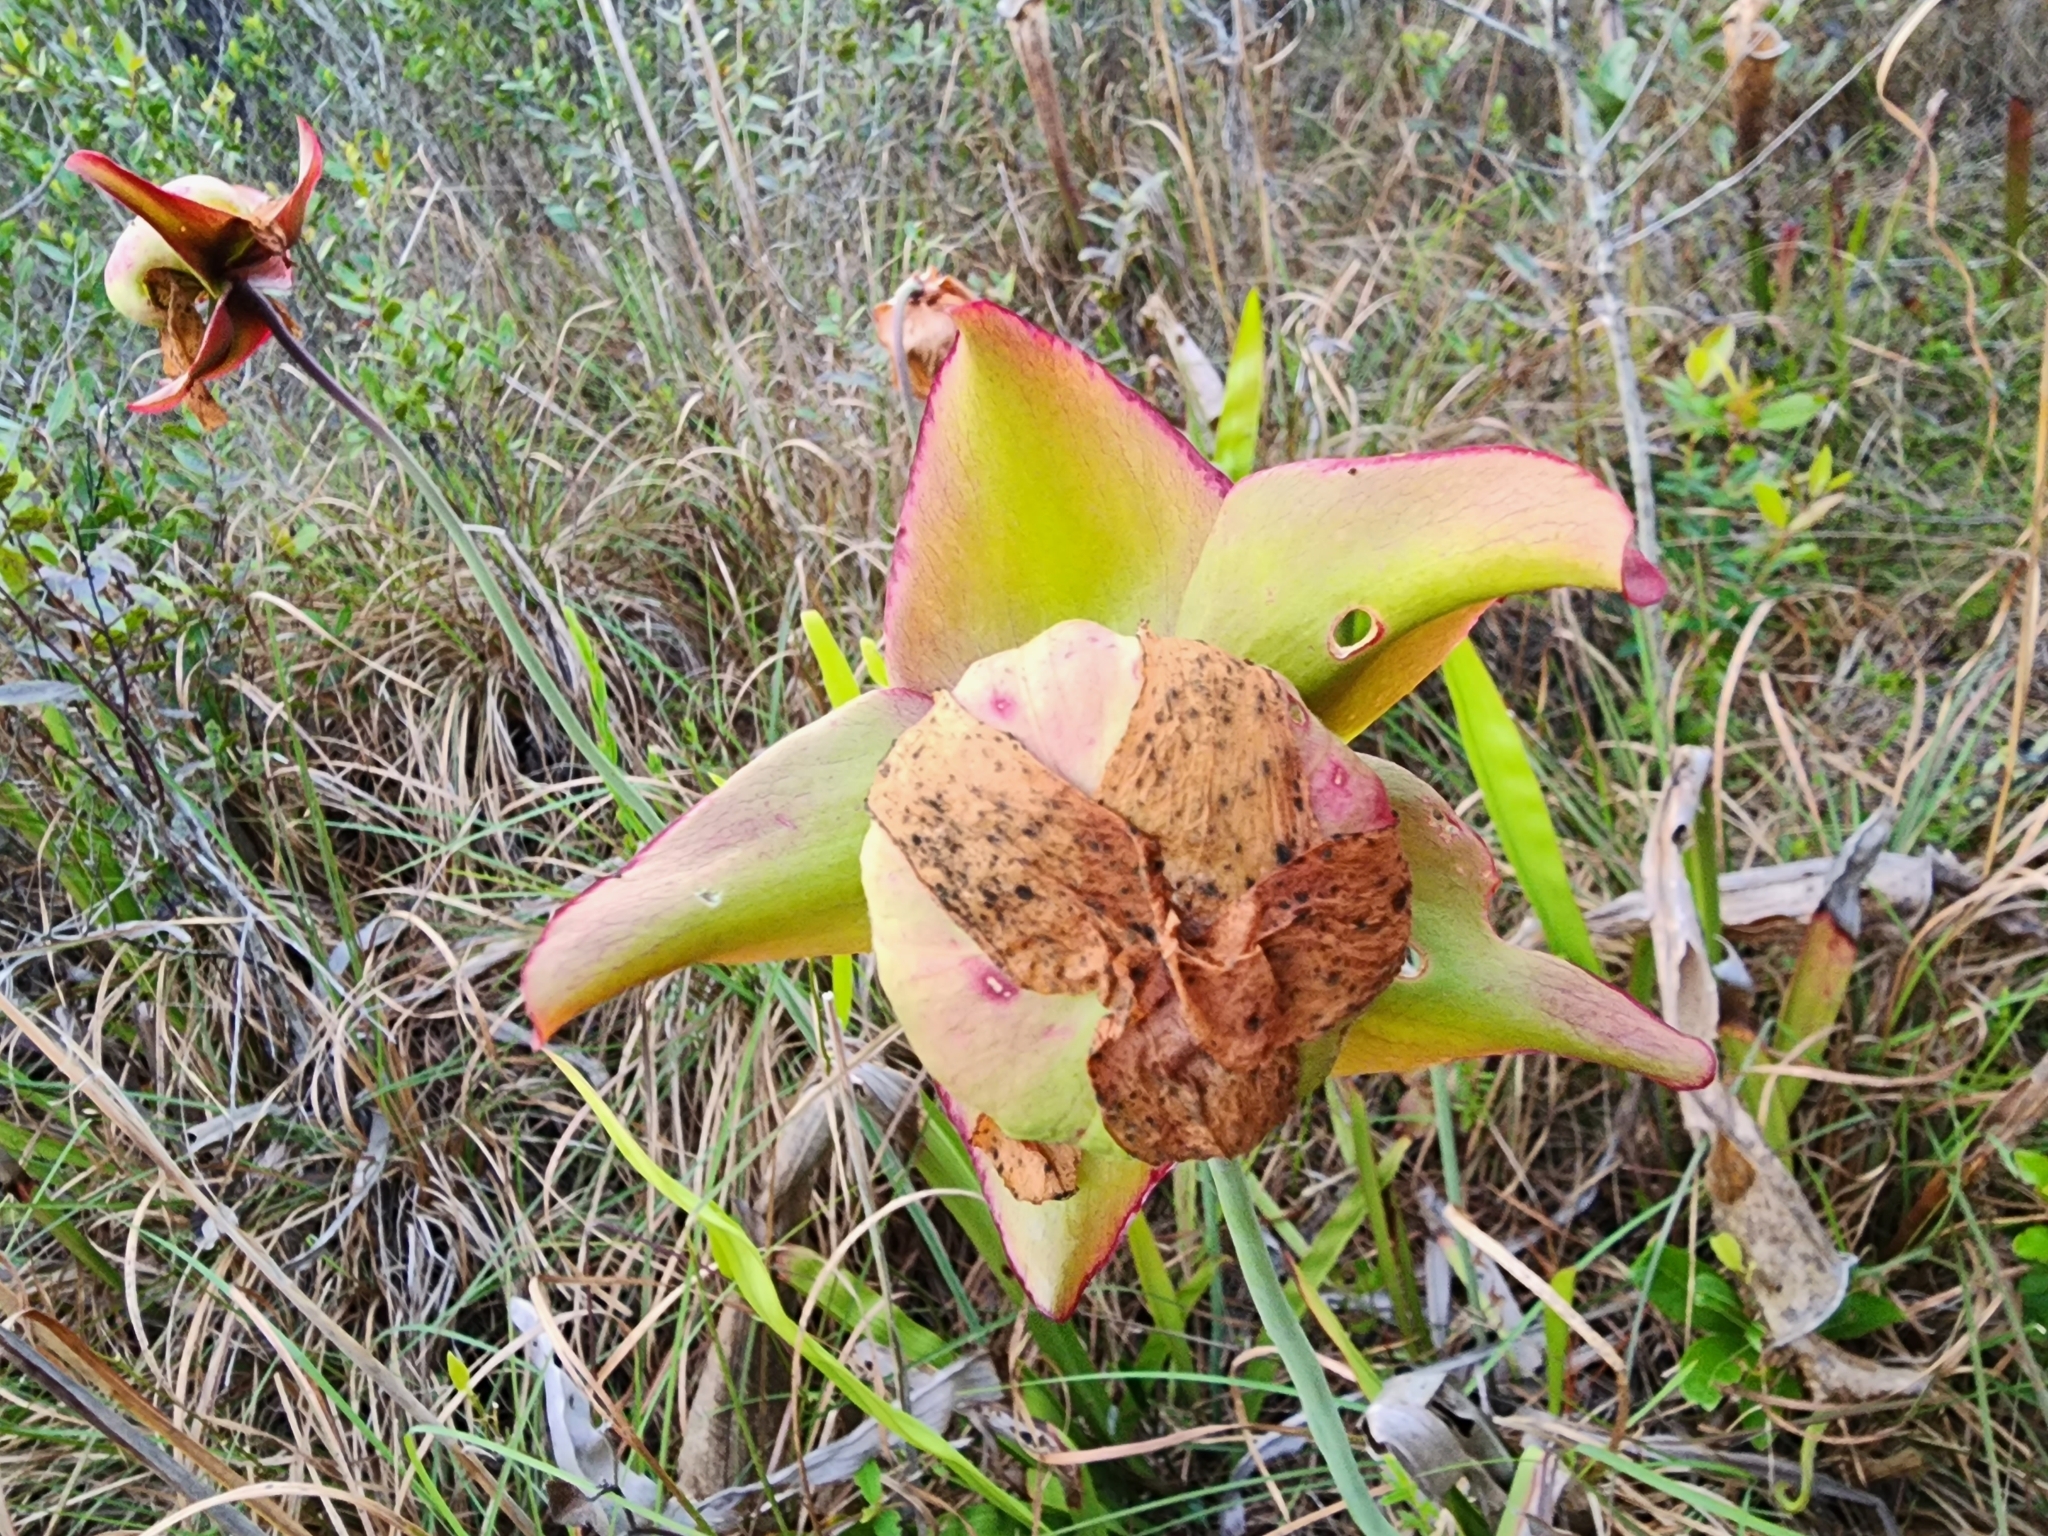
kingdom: Plantae
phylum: Tracheophyta
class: Magnoliopsida
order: Ericales
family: Sarraceniaceae
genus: Sarracenia
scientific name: Sarracenia leucophylla
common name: Purple trumpetleaf
